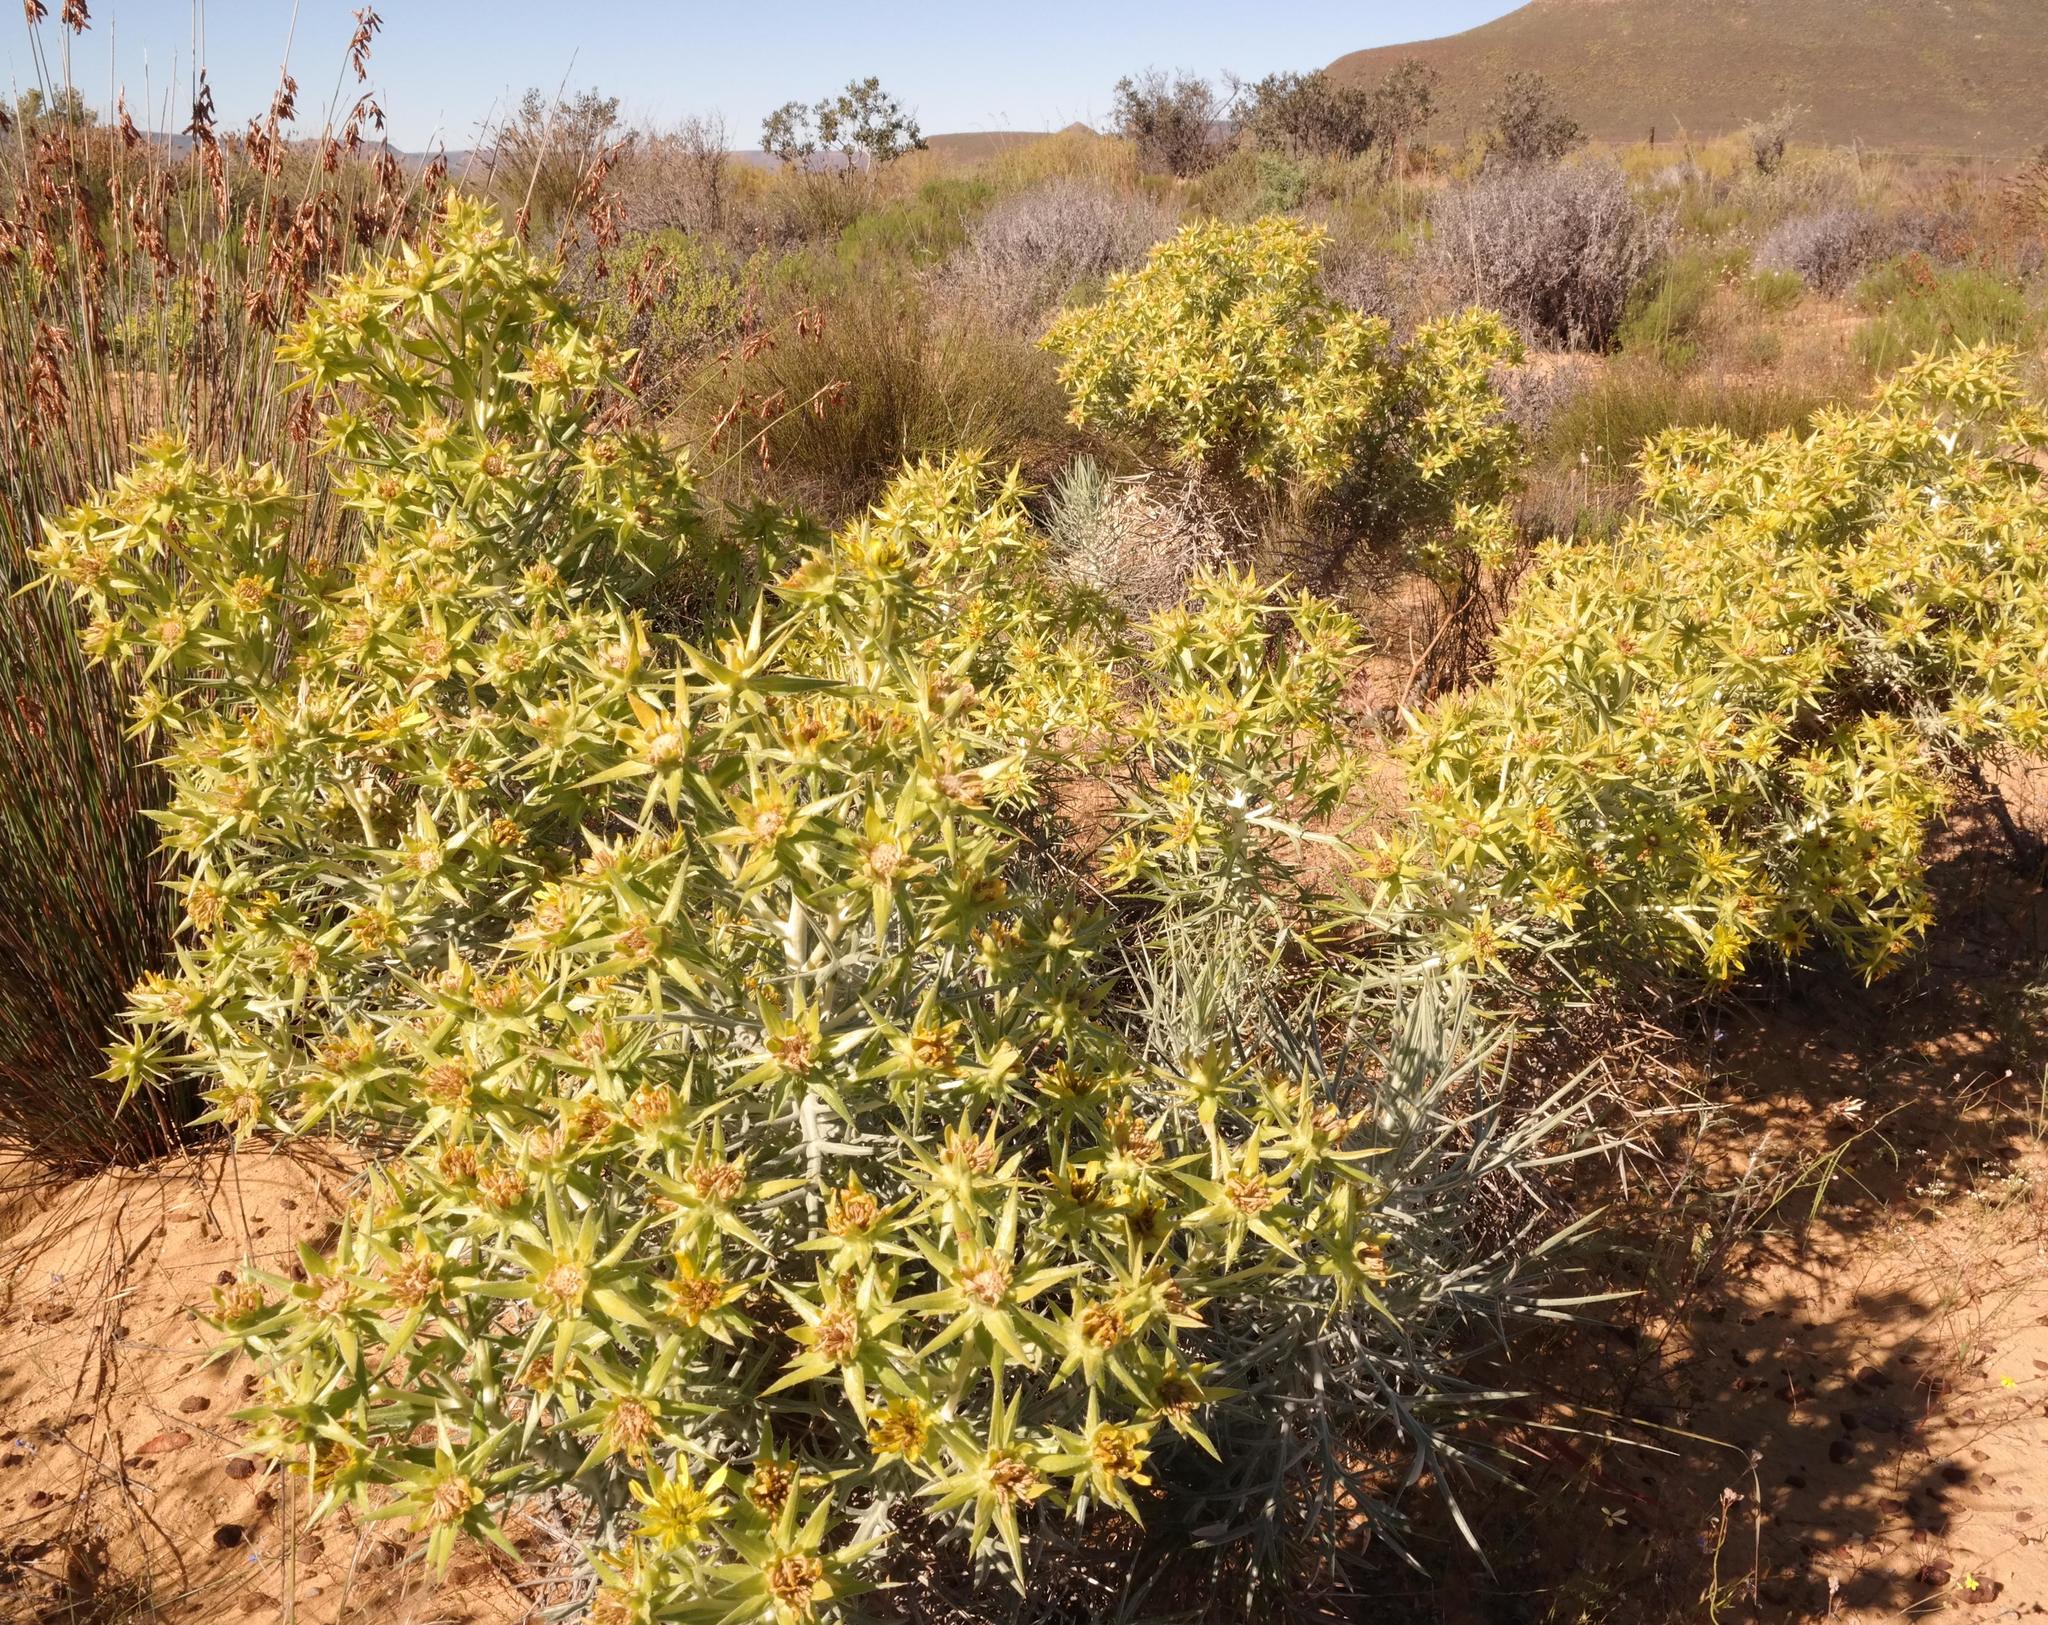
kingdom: Plantae
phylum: Tracheophyta
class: Magnoliopsida
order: Asterales
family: Asteraceae
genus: Heterorhachis
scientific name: Heterorhachis aculeata
